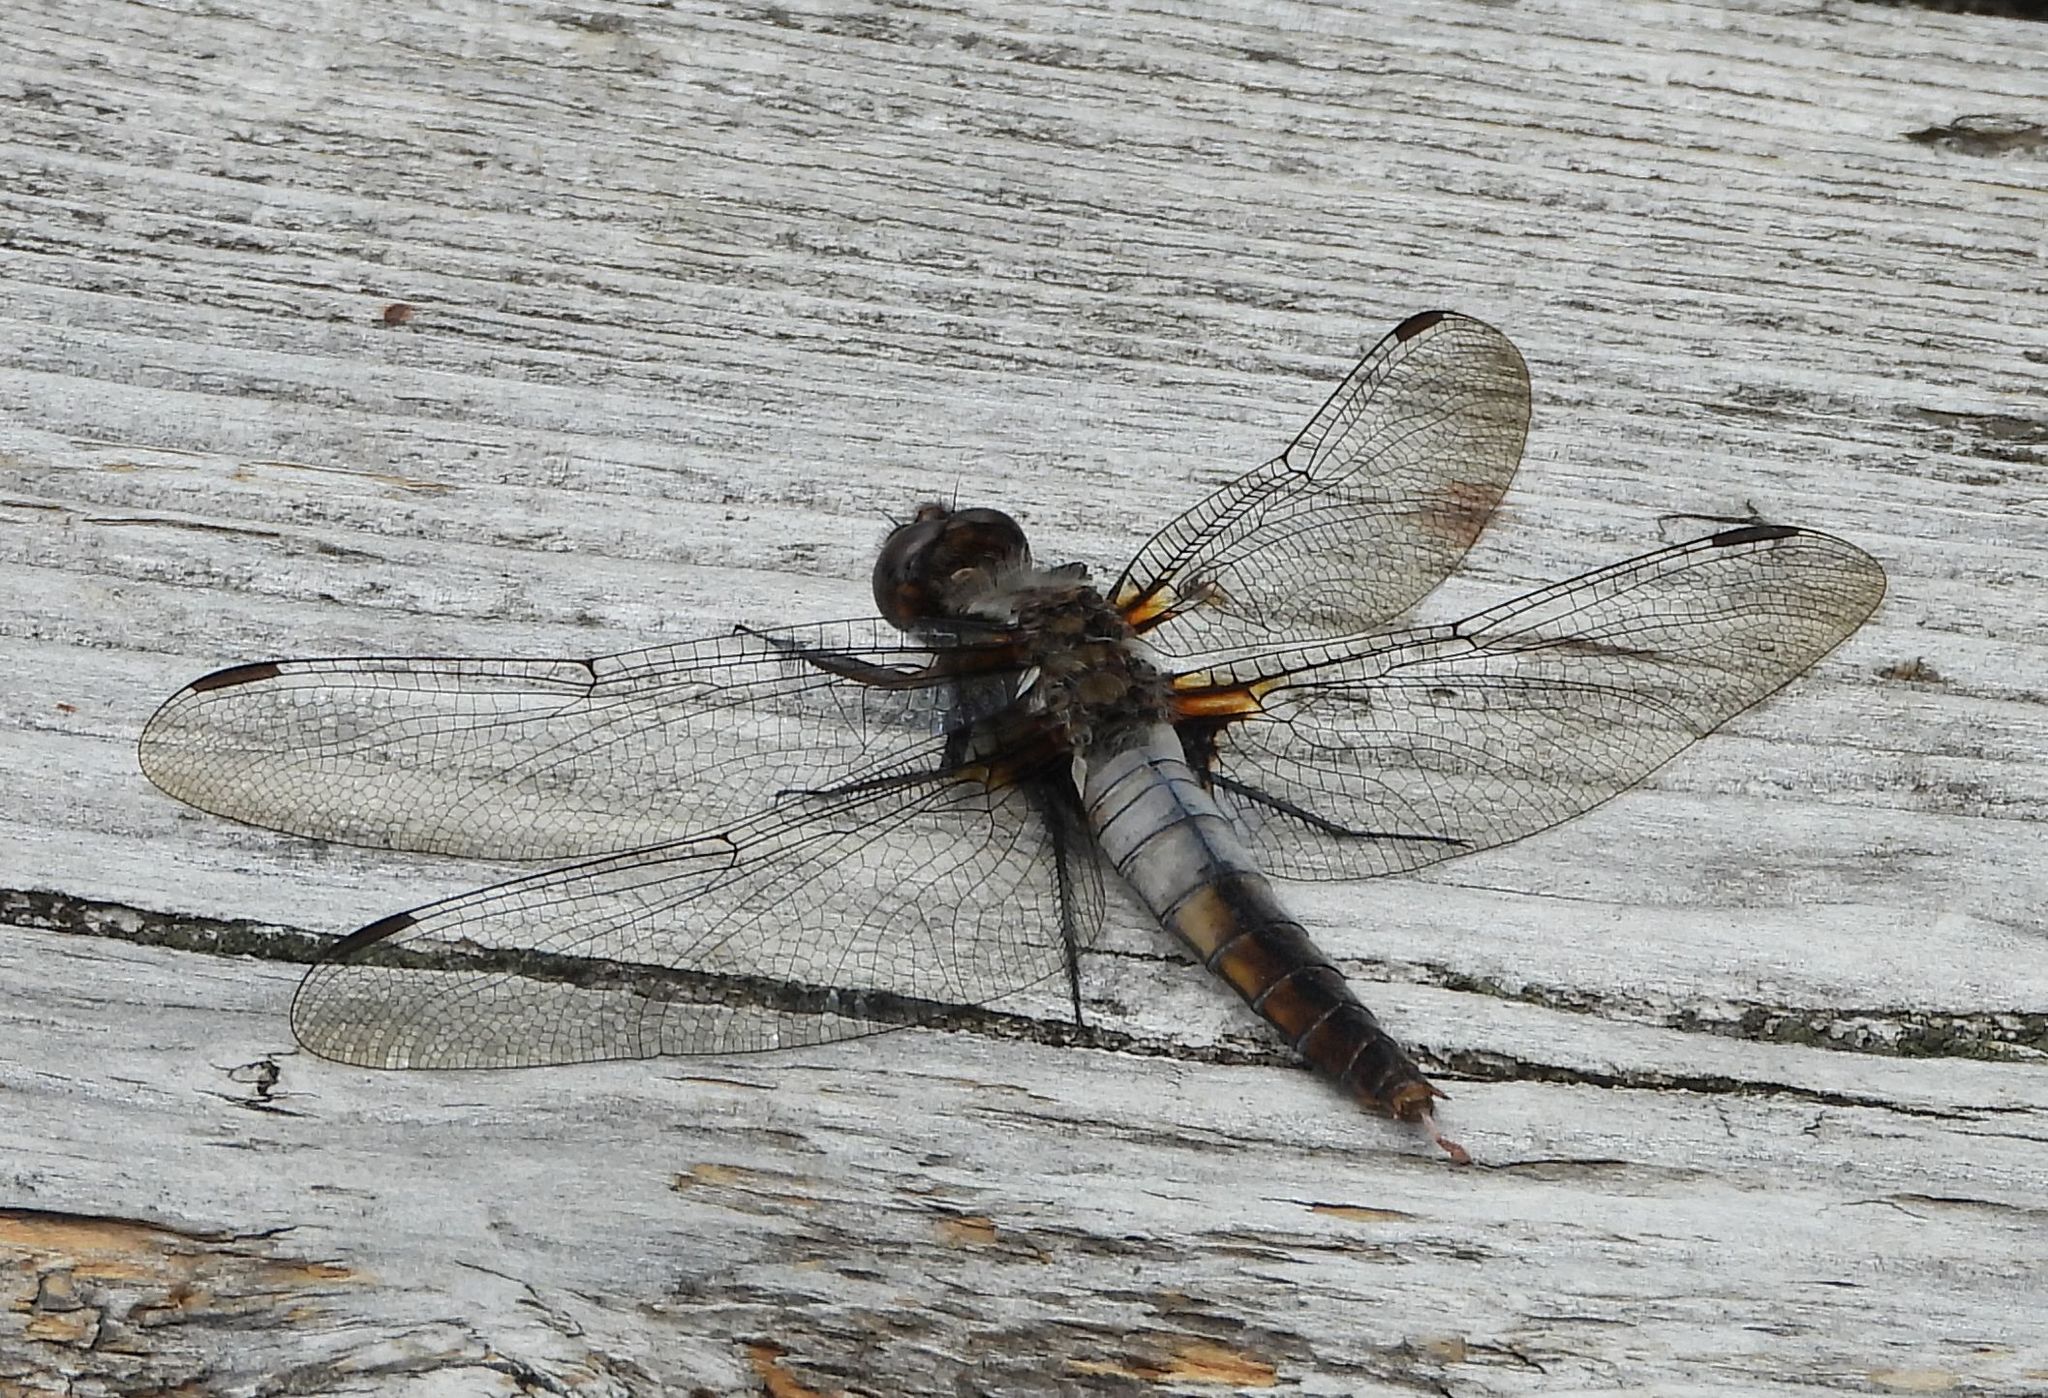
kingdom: Animalia
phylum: Arthropoda
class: Insecta
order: Odonata
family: Libellulidae
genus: Ladona
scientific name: Ladona julia
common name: Chalk-fronted corporal
